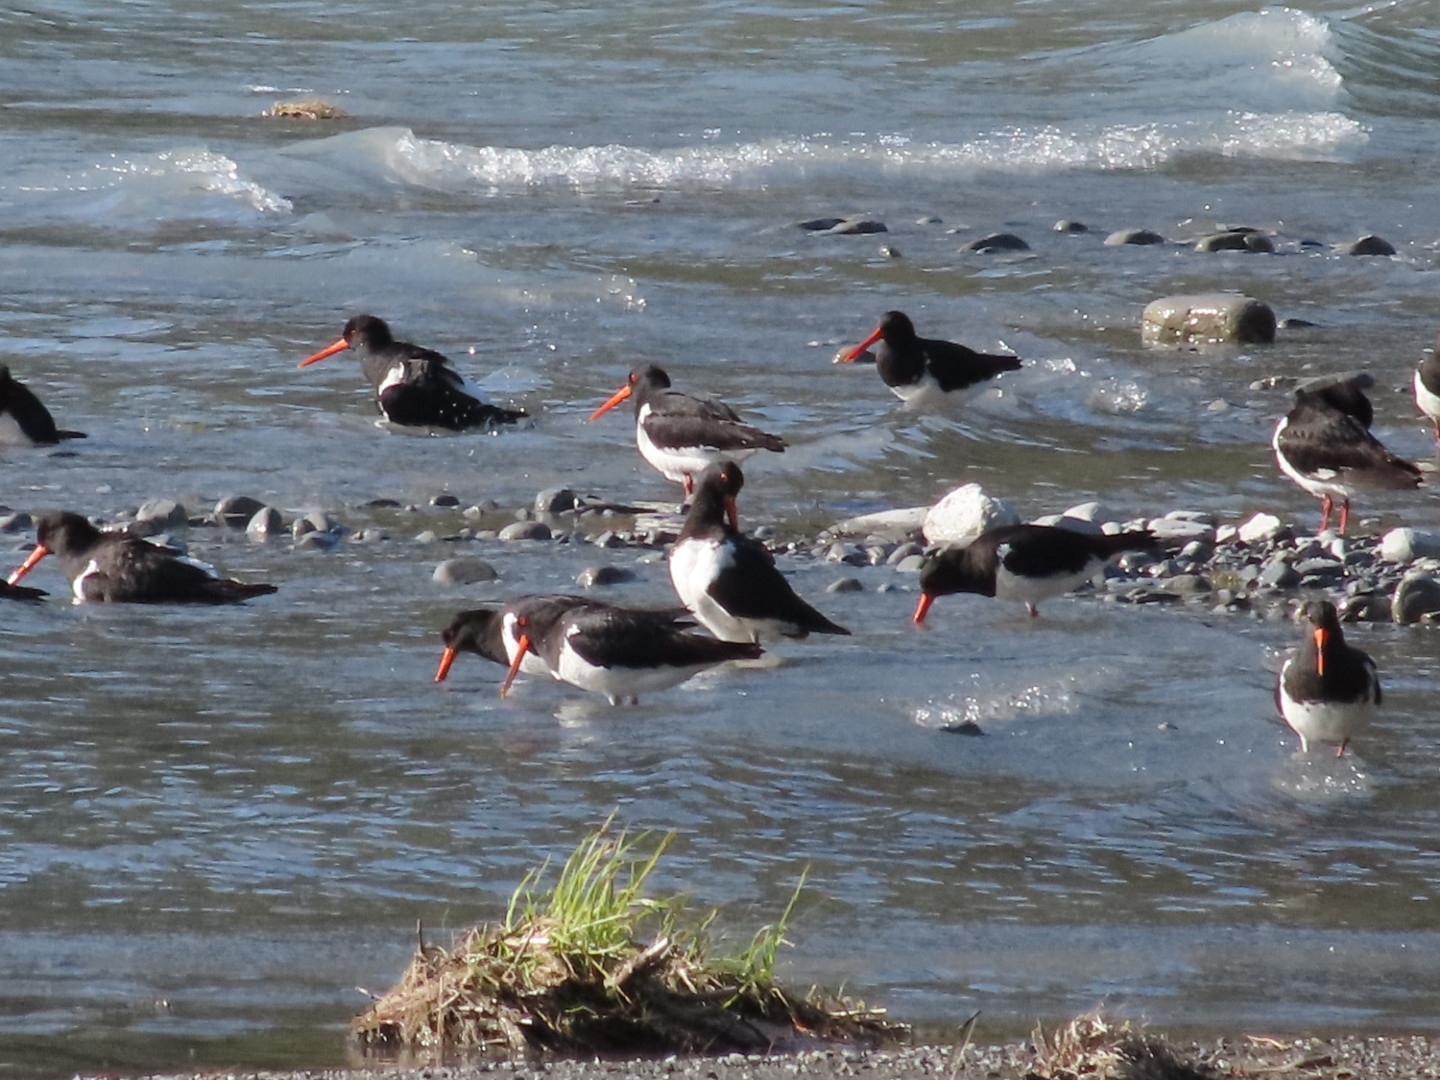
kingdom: Animalia
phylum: Chordata
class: Aves
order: Charadriiformes
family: Haematopodidae
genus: Haematopus
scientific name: Haematopus finschi
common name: South island oystercatcher
